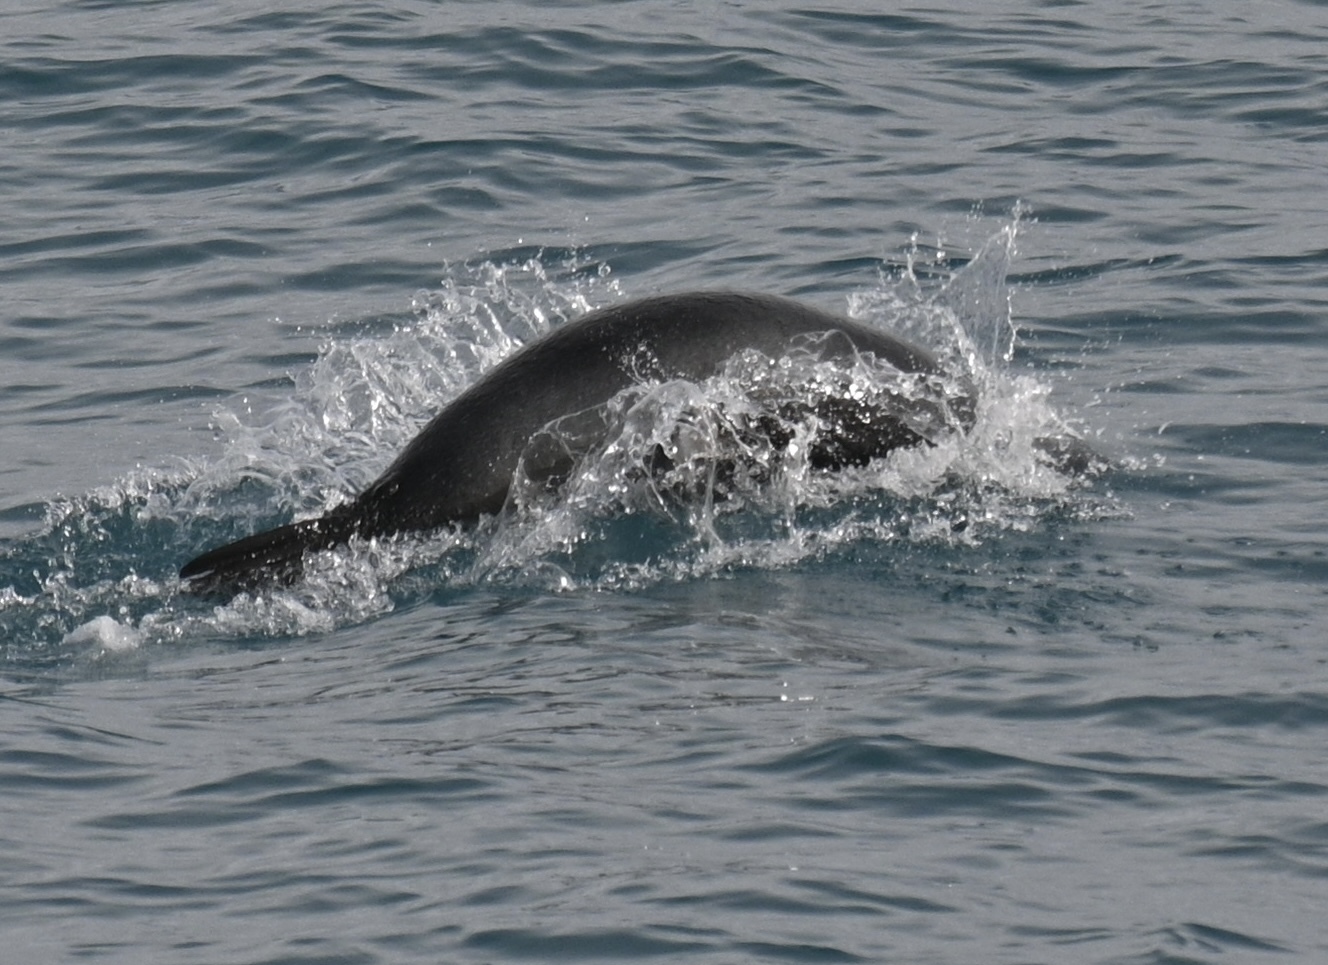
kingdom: Animalia
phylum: Chordata
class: Mammalia
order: Carnivora
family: Otariidae
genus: Arctocephalus
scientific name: Arctocephalus gazella
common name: Antarctic fur seal
